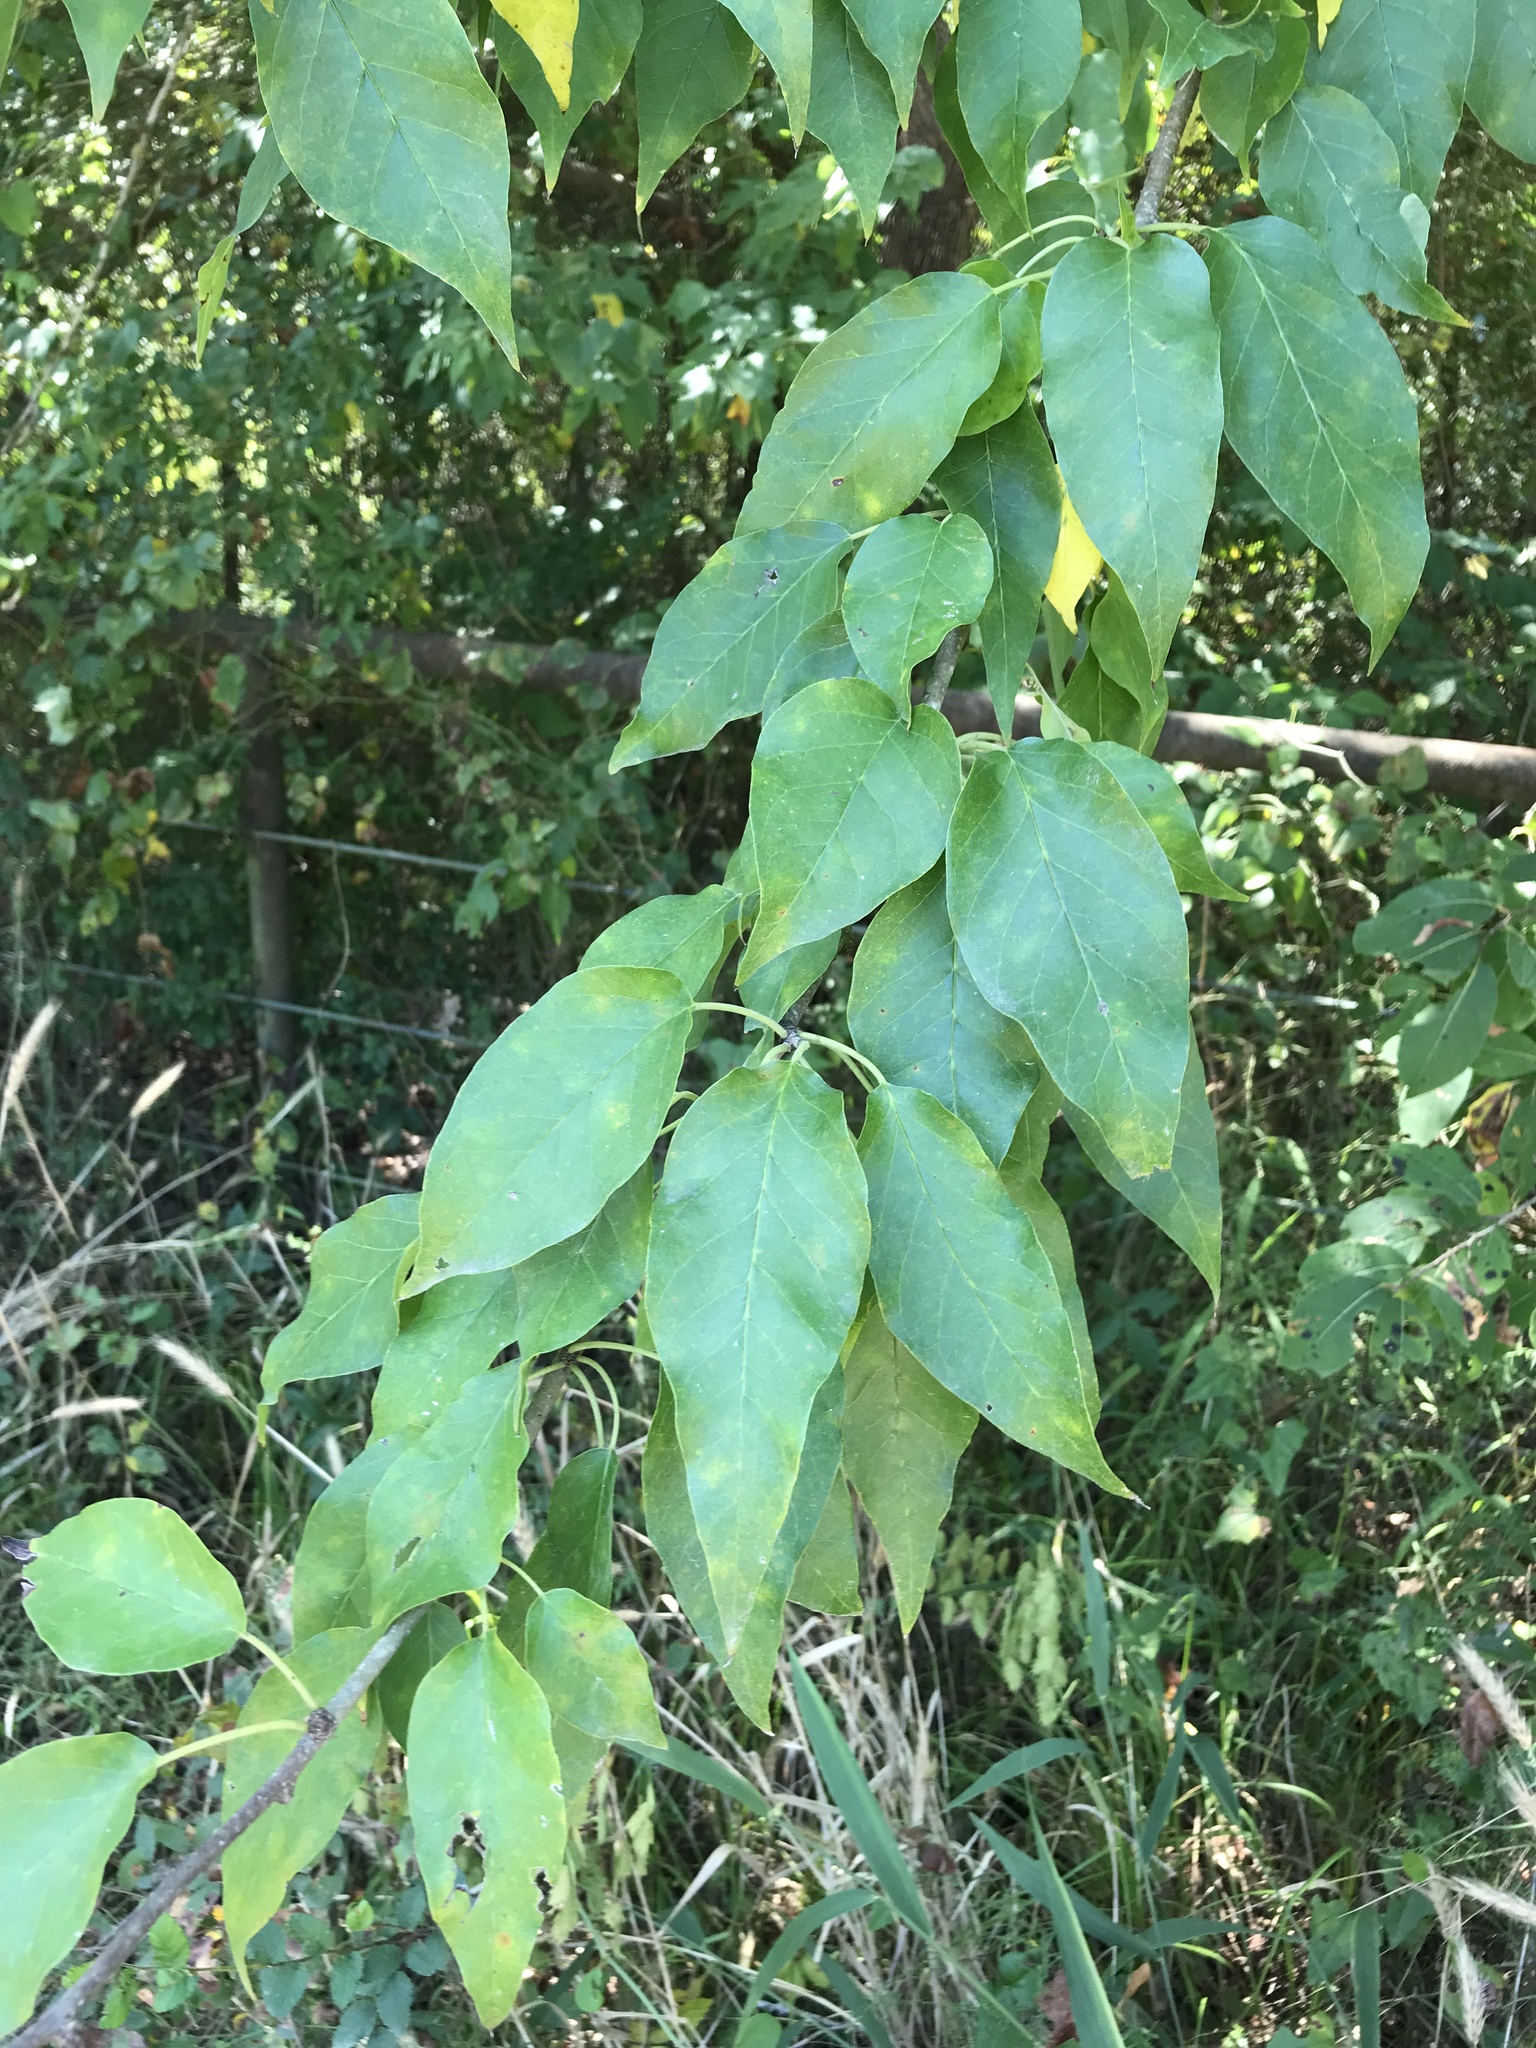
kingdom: Plantae
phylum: Tracheophyta
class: Magnoliopsida
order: Rosales
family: Moraceae
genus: Maclura
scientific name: Maclura pomifera
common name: Osage-orange
